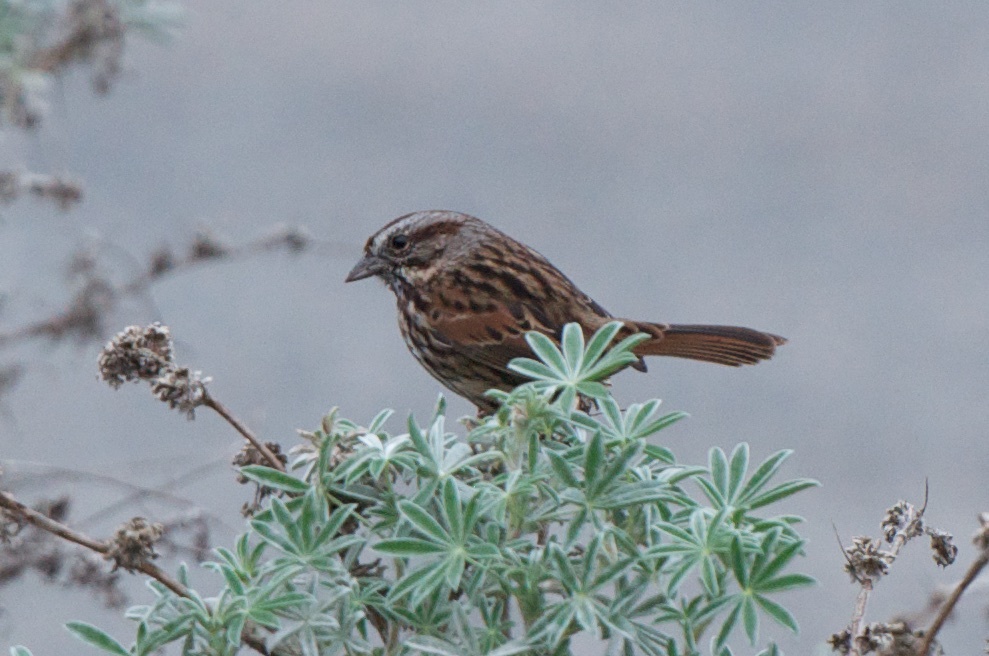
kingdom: Animalia
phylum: Chordata
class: Aves
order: Passeriformes
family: Passerellidae
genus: Melospiza
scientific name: Melospiza melodia
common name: Song sparrow
